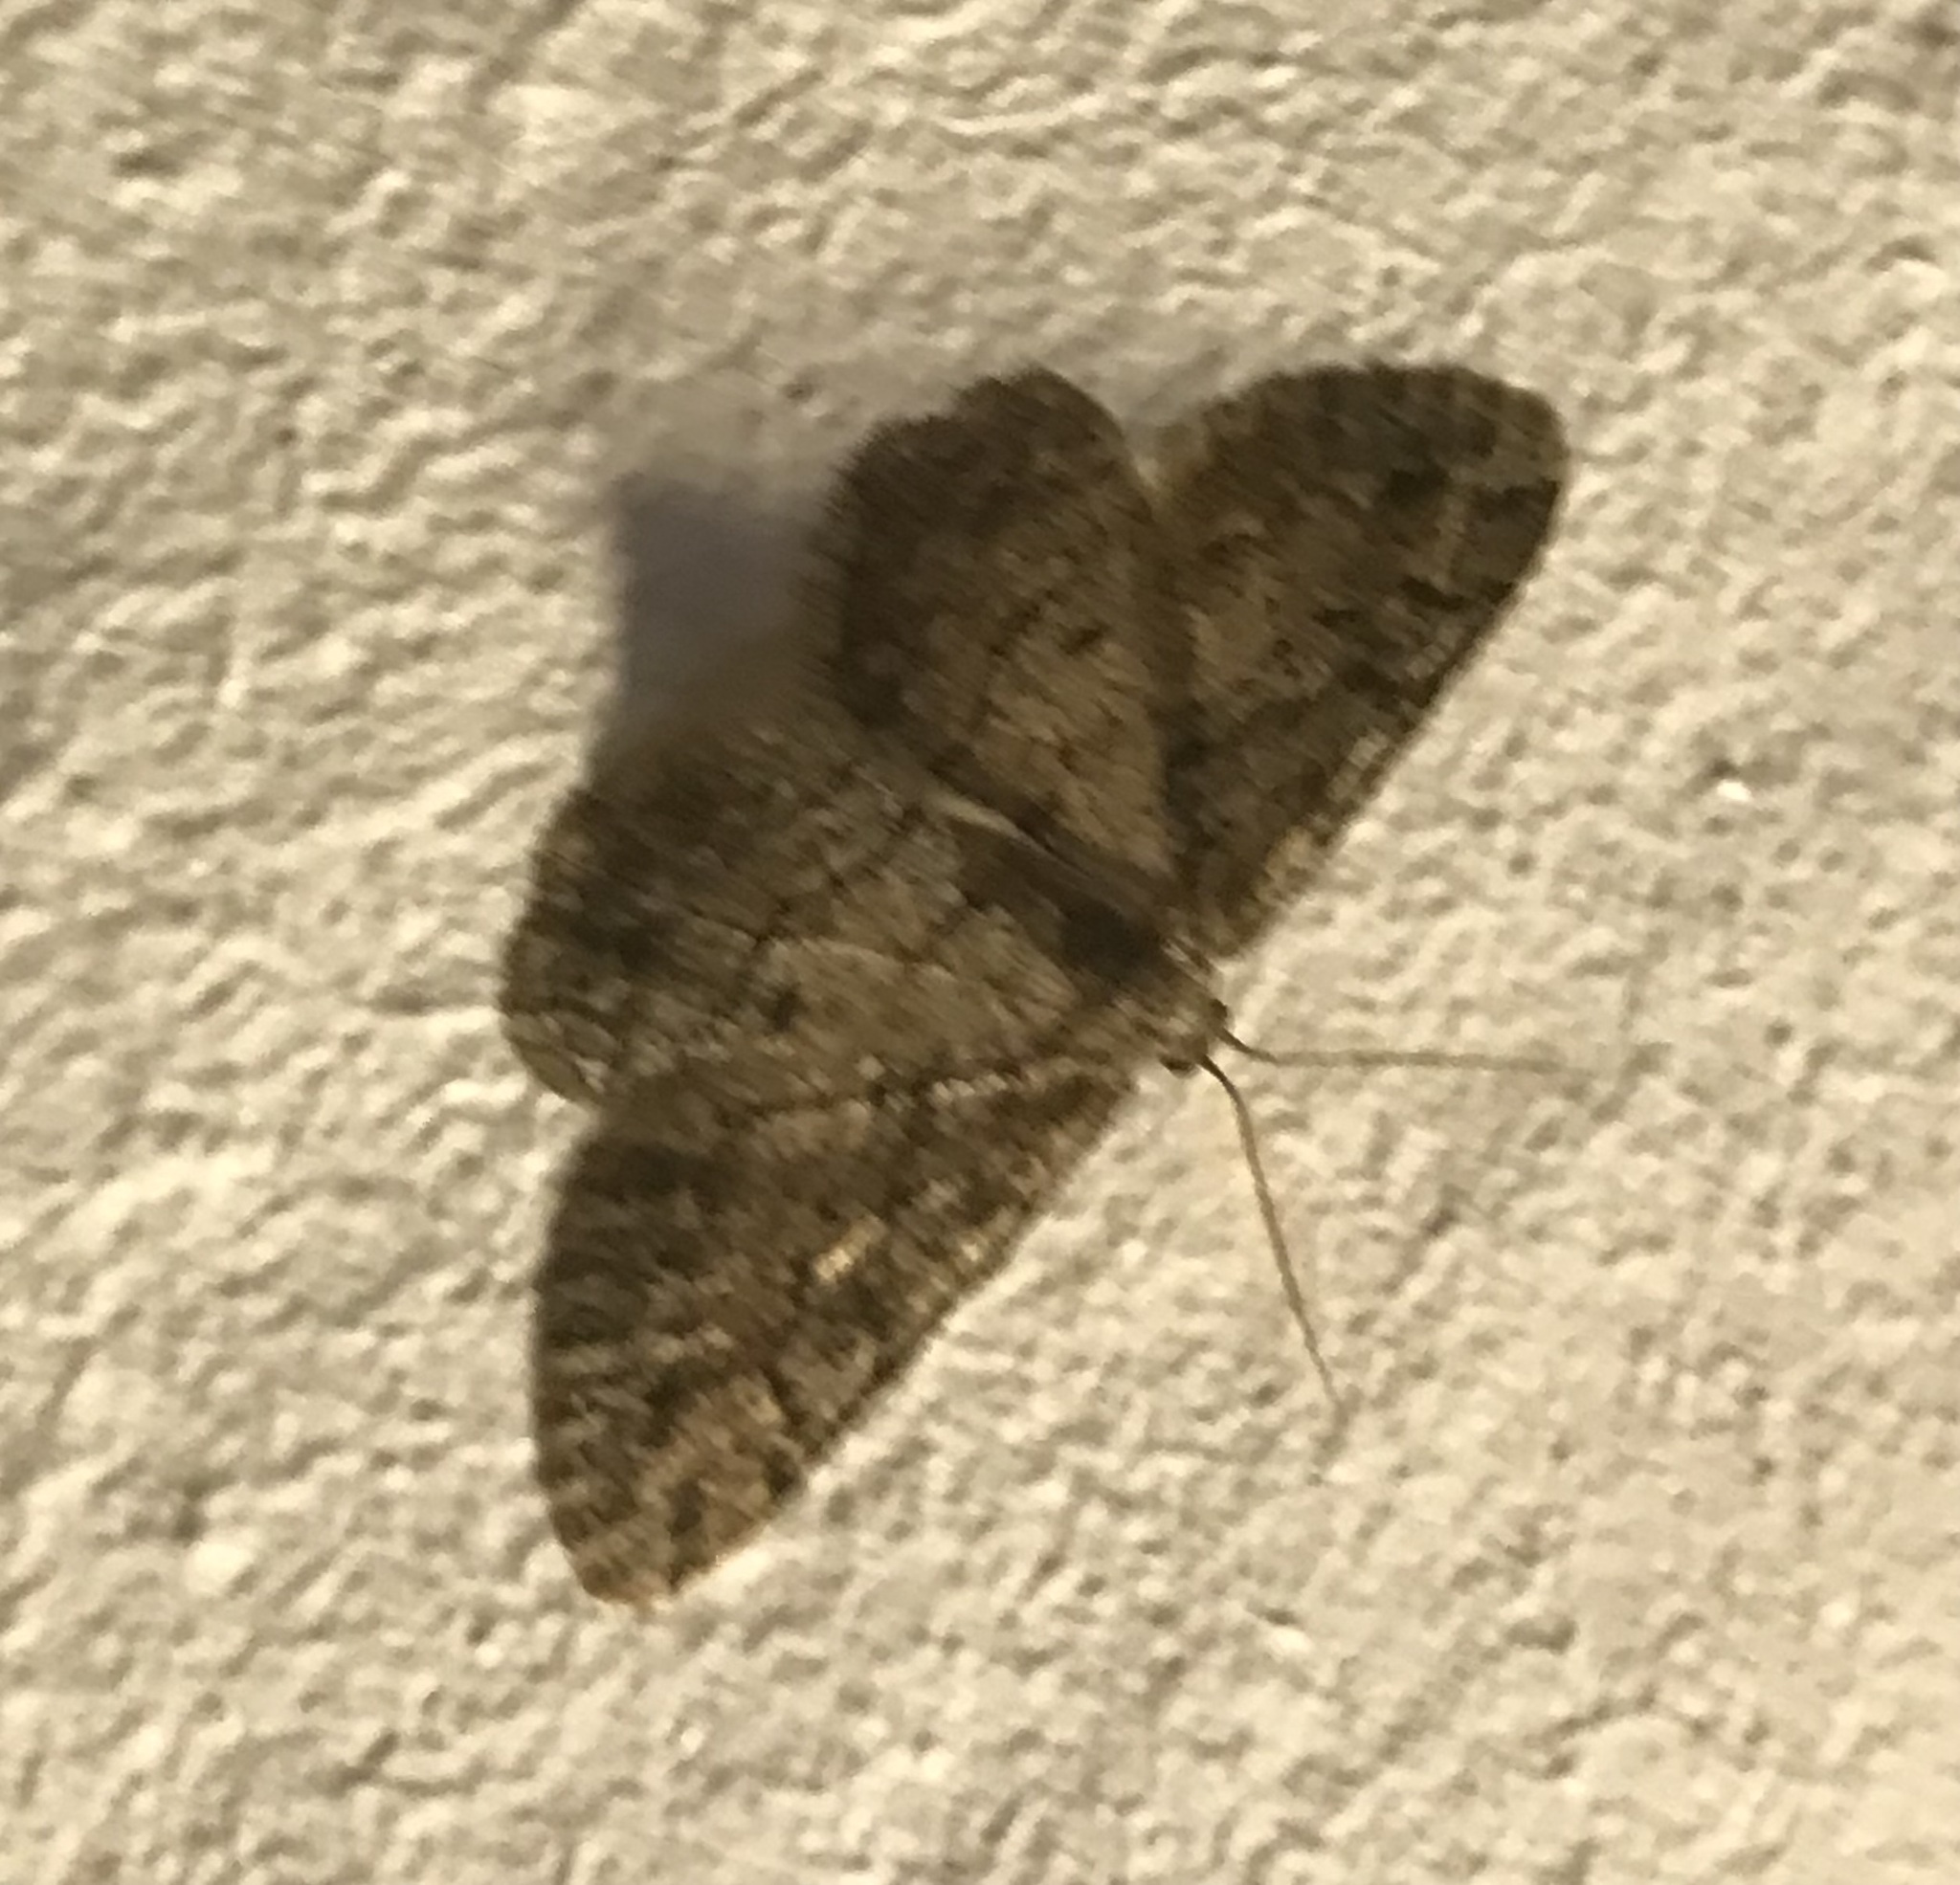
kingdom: Animalia
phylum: Arthropoda
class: Insecta
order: Lepidoptera
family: Geometridae
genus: Zermizinga
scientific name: Zermizinga indocilisaria
